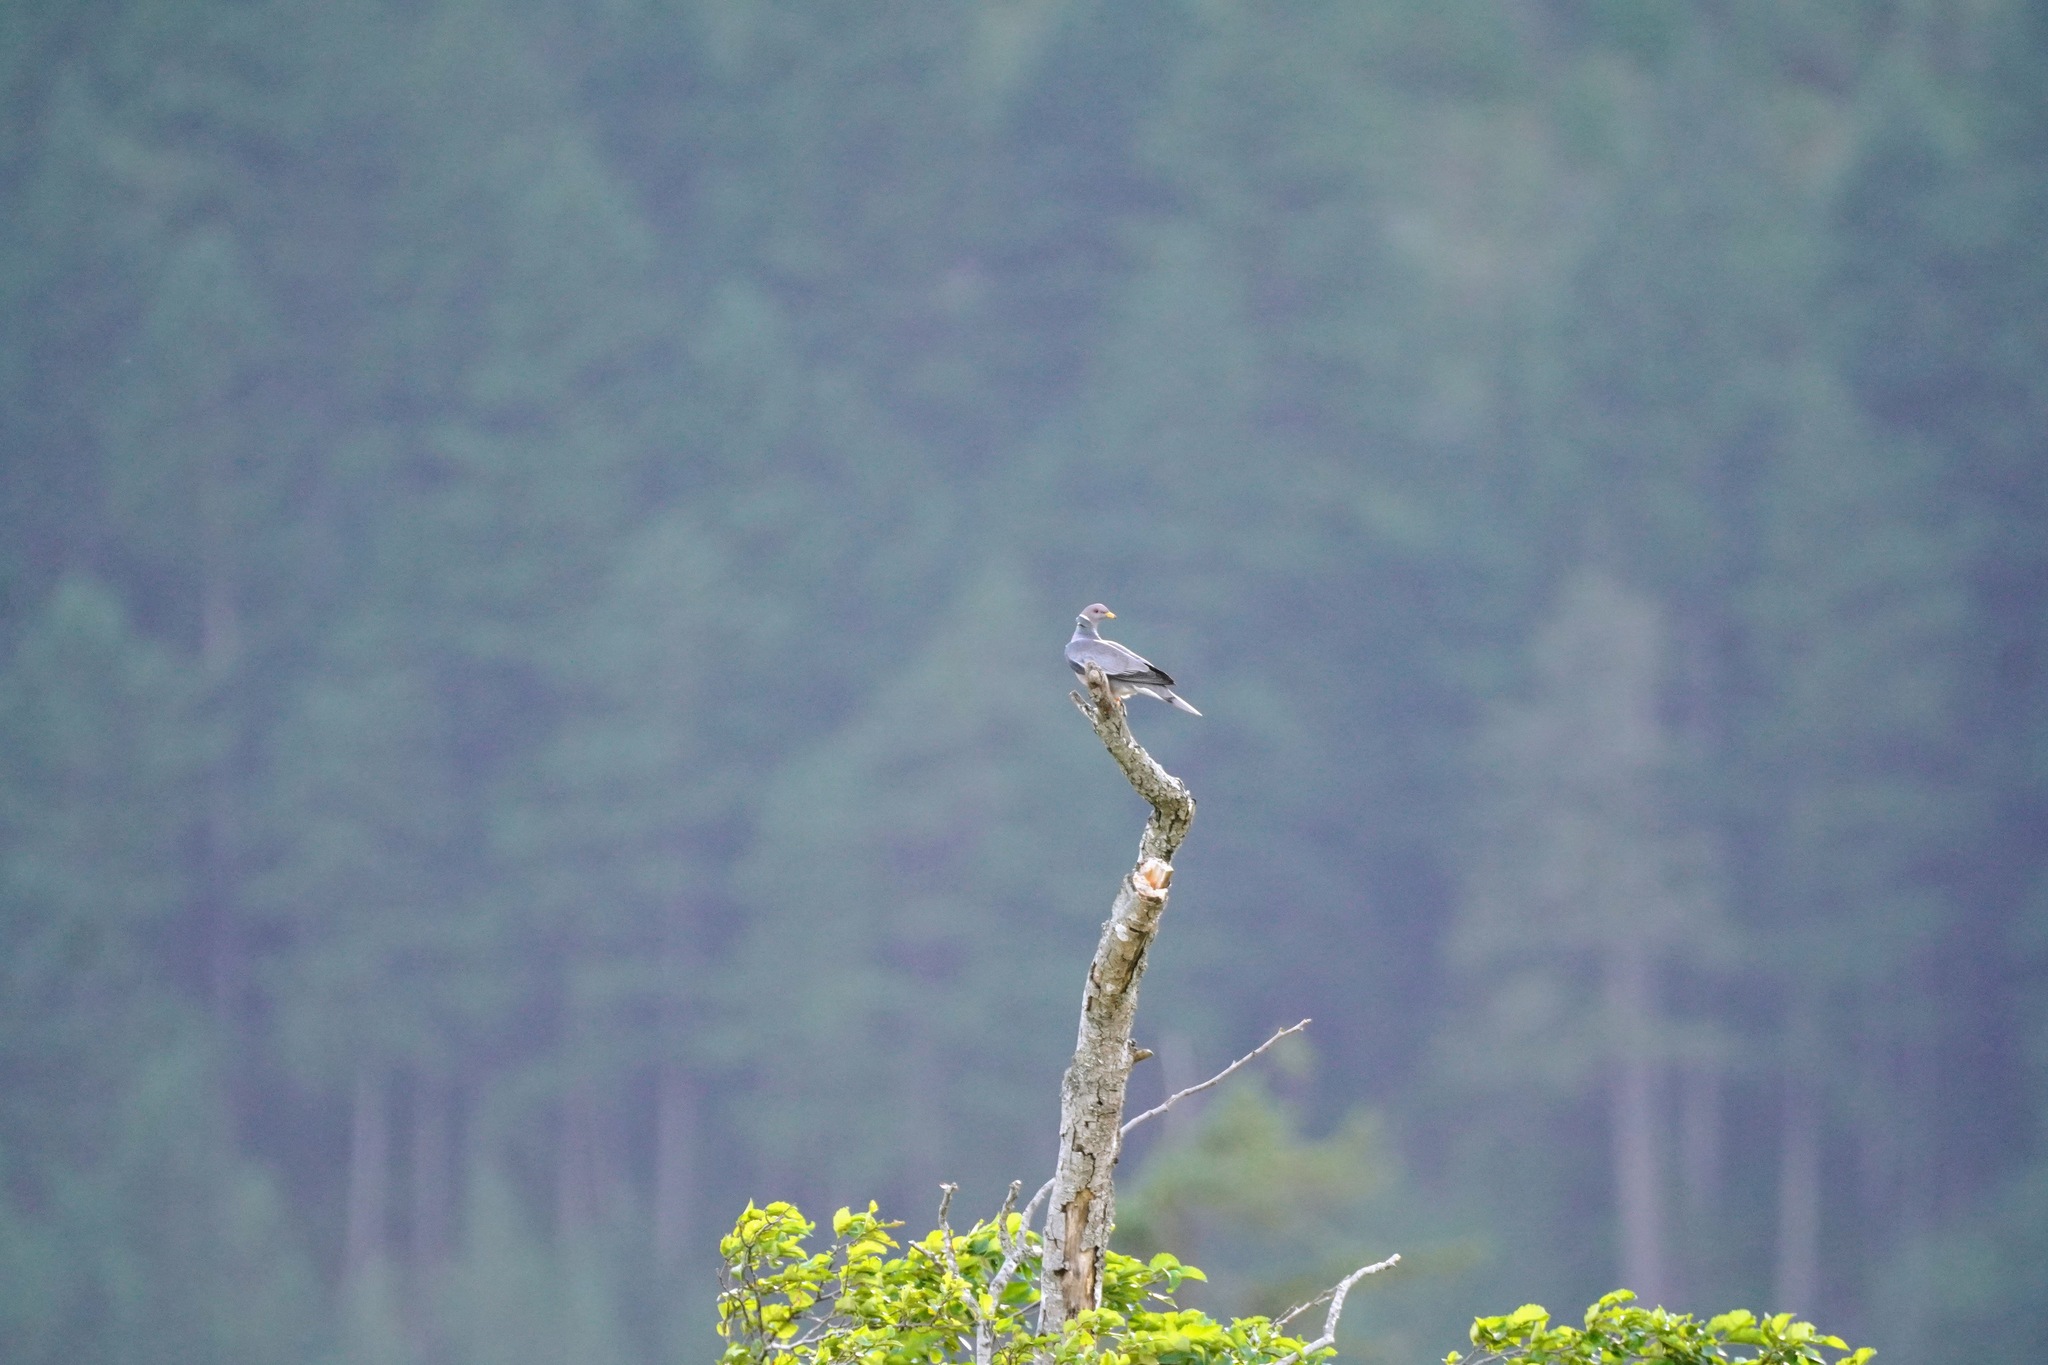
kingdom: Animalia
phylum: Chordata
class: Aves
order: Columbiformes
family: Columbidae
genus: Patagioenas
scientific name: Patagioenas fasciata
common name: Band-tailed pigeon
